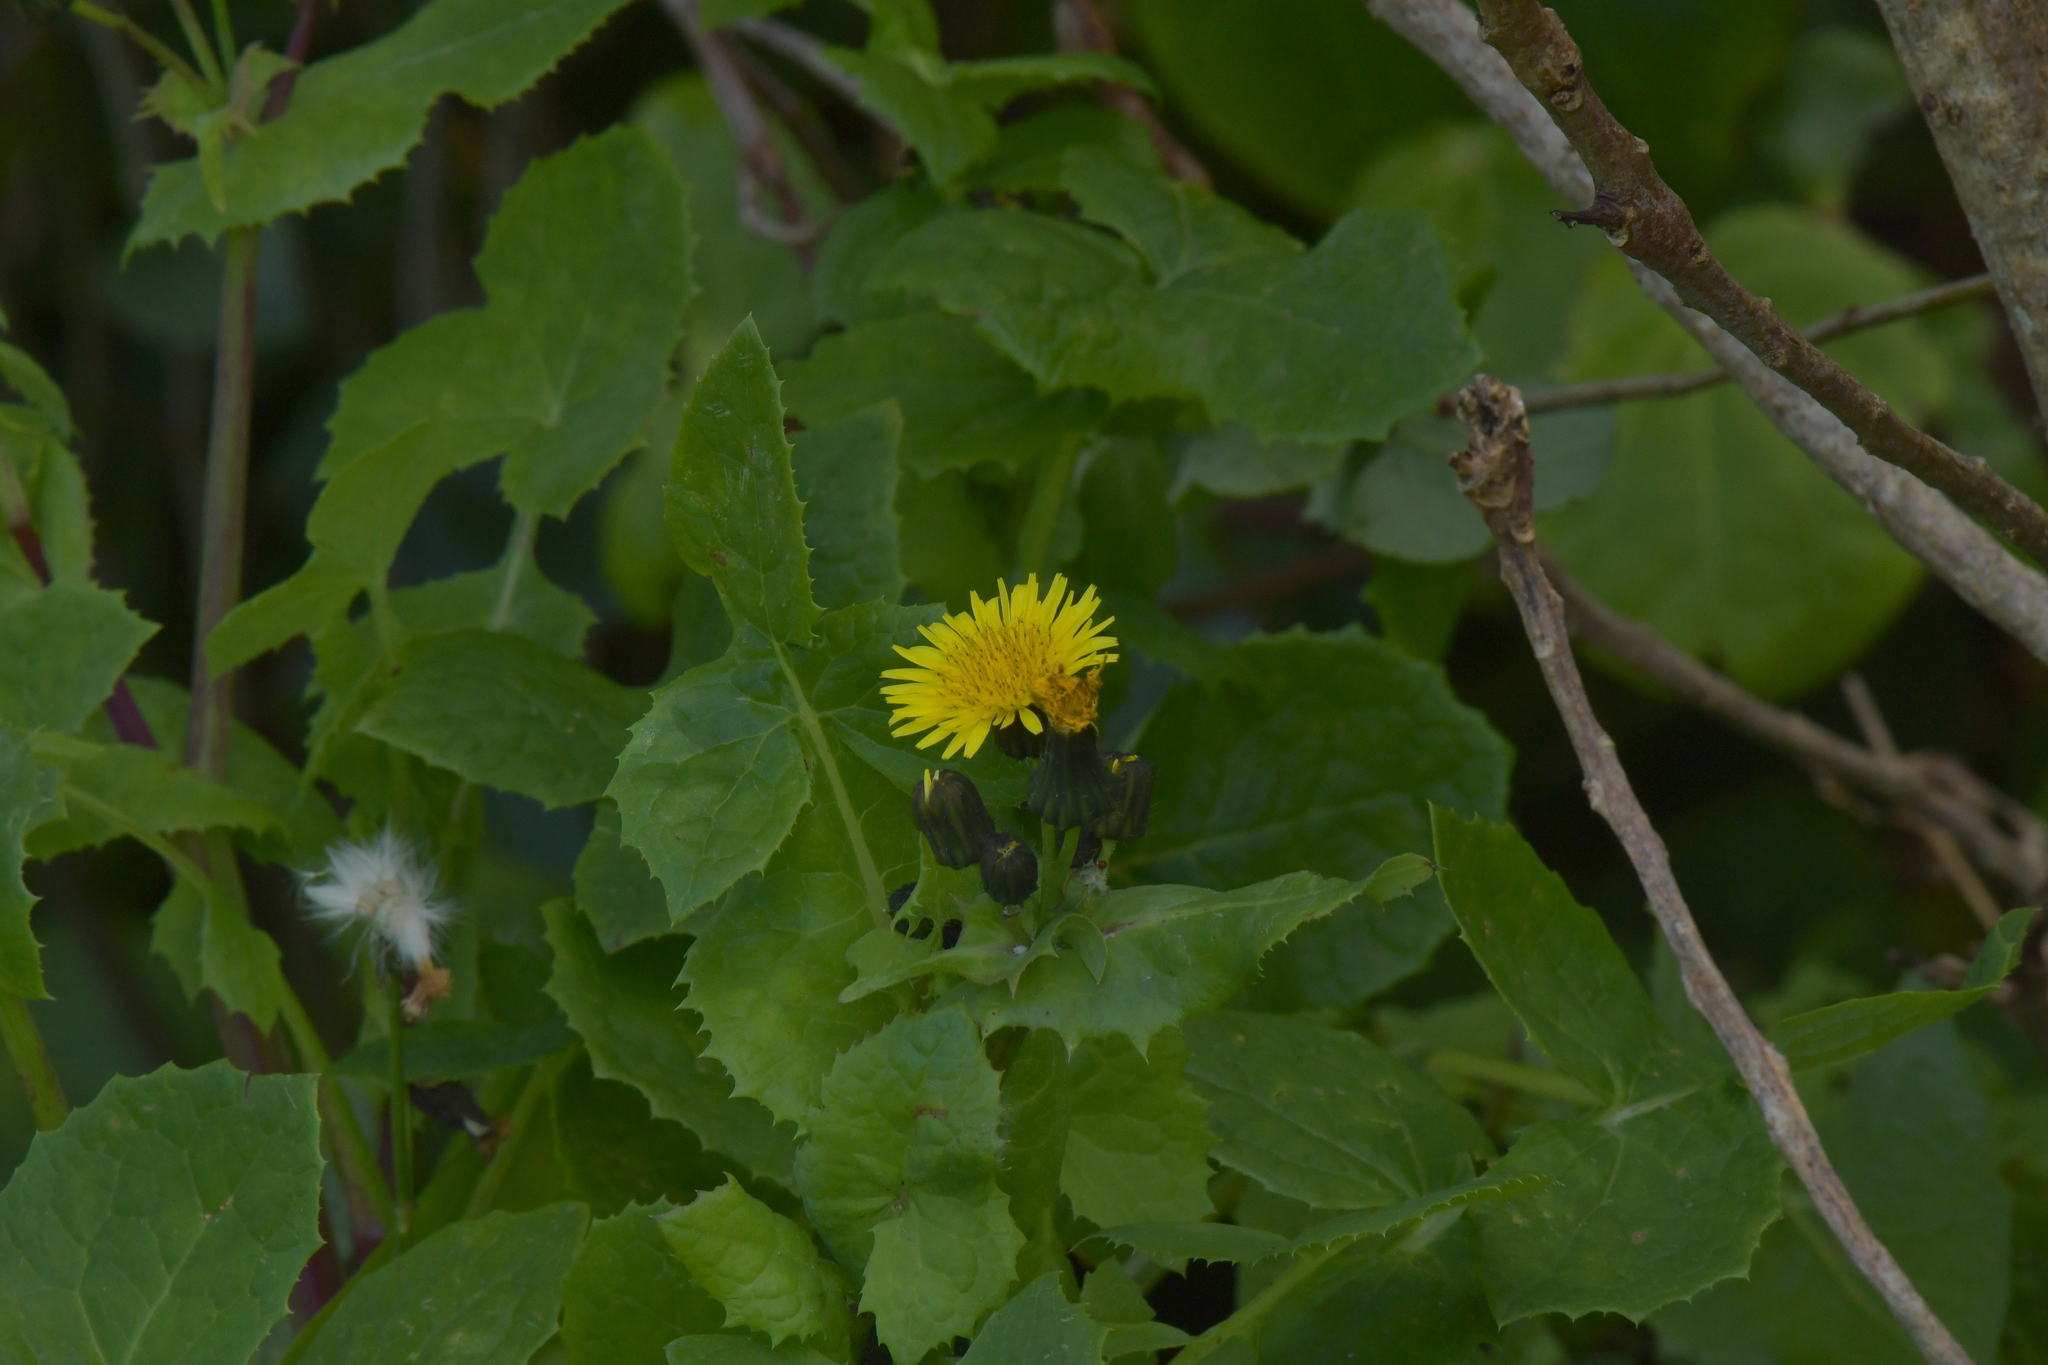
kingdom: Plantae
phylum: Tracheophyta
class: Magnoliopsida
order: Asterales
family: Asteraceae
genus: Sonchus
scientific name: Sonchus oleraceus
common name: Common sowthistle
